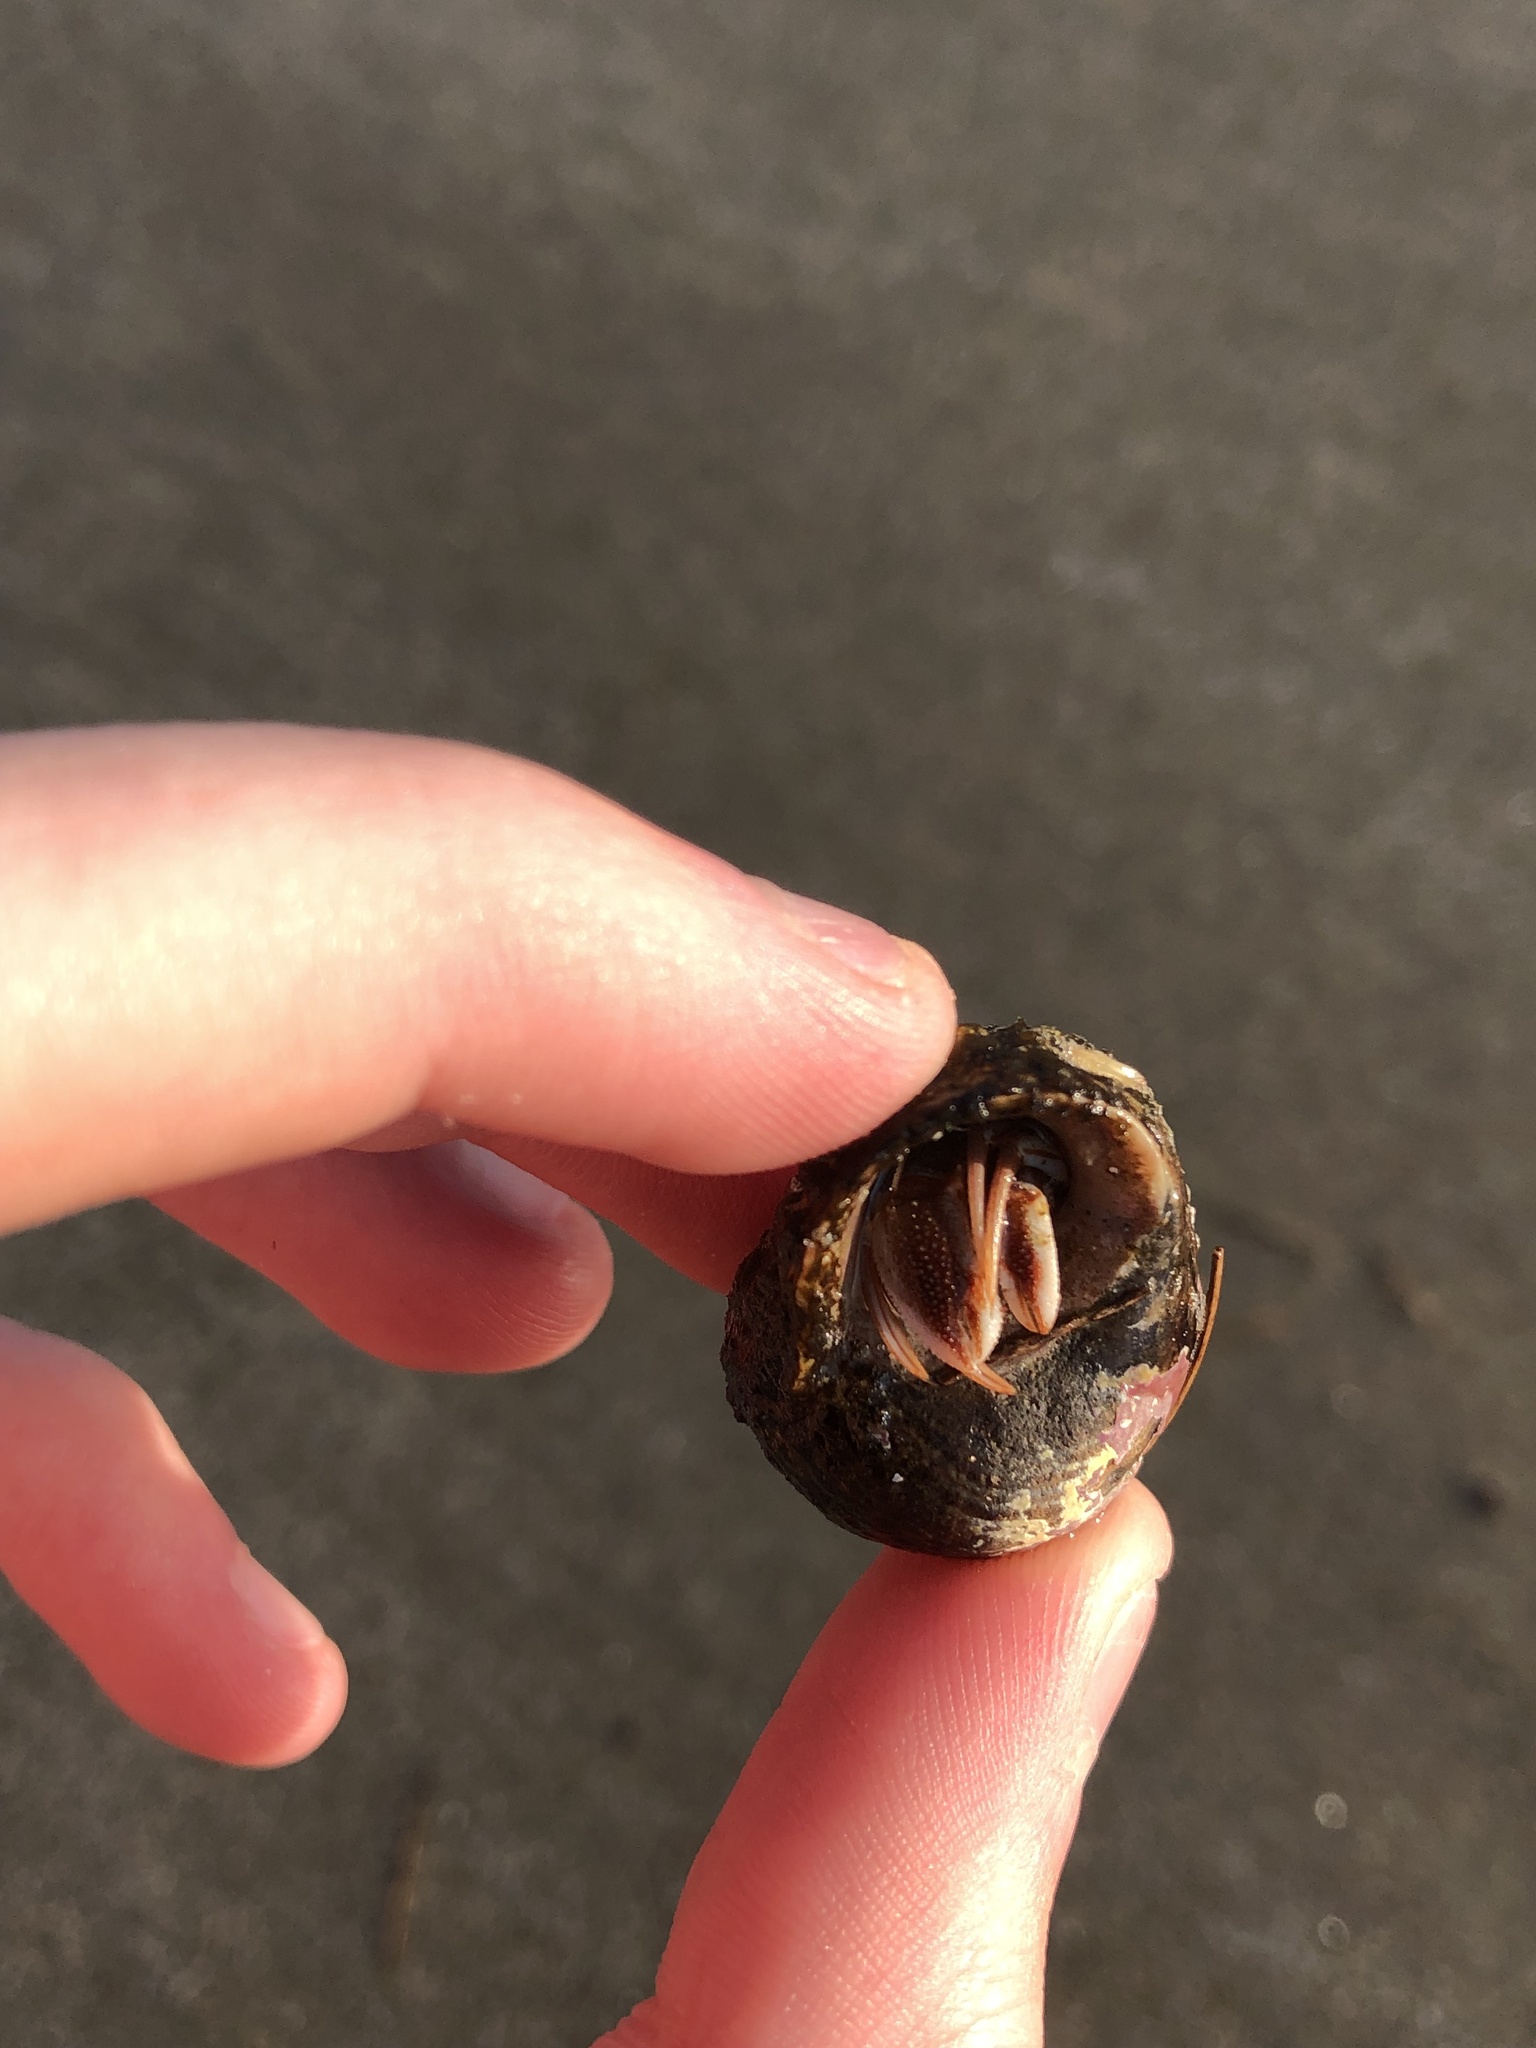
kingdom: Animalia
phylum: Arthropoda
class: Malacostraca
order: Decapoda
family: Paguridae
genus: Pagurus
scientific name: Pagurus acadianus
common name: Acadian hermit crab
